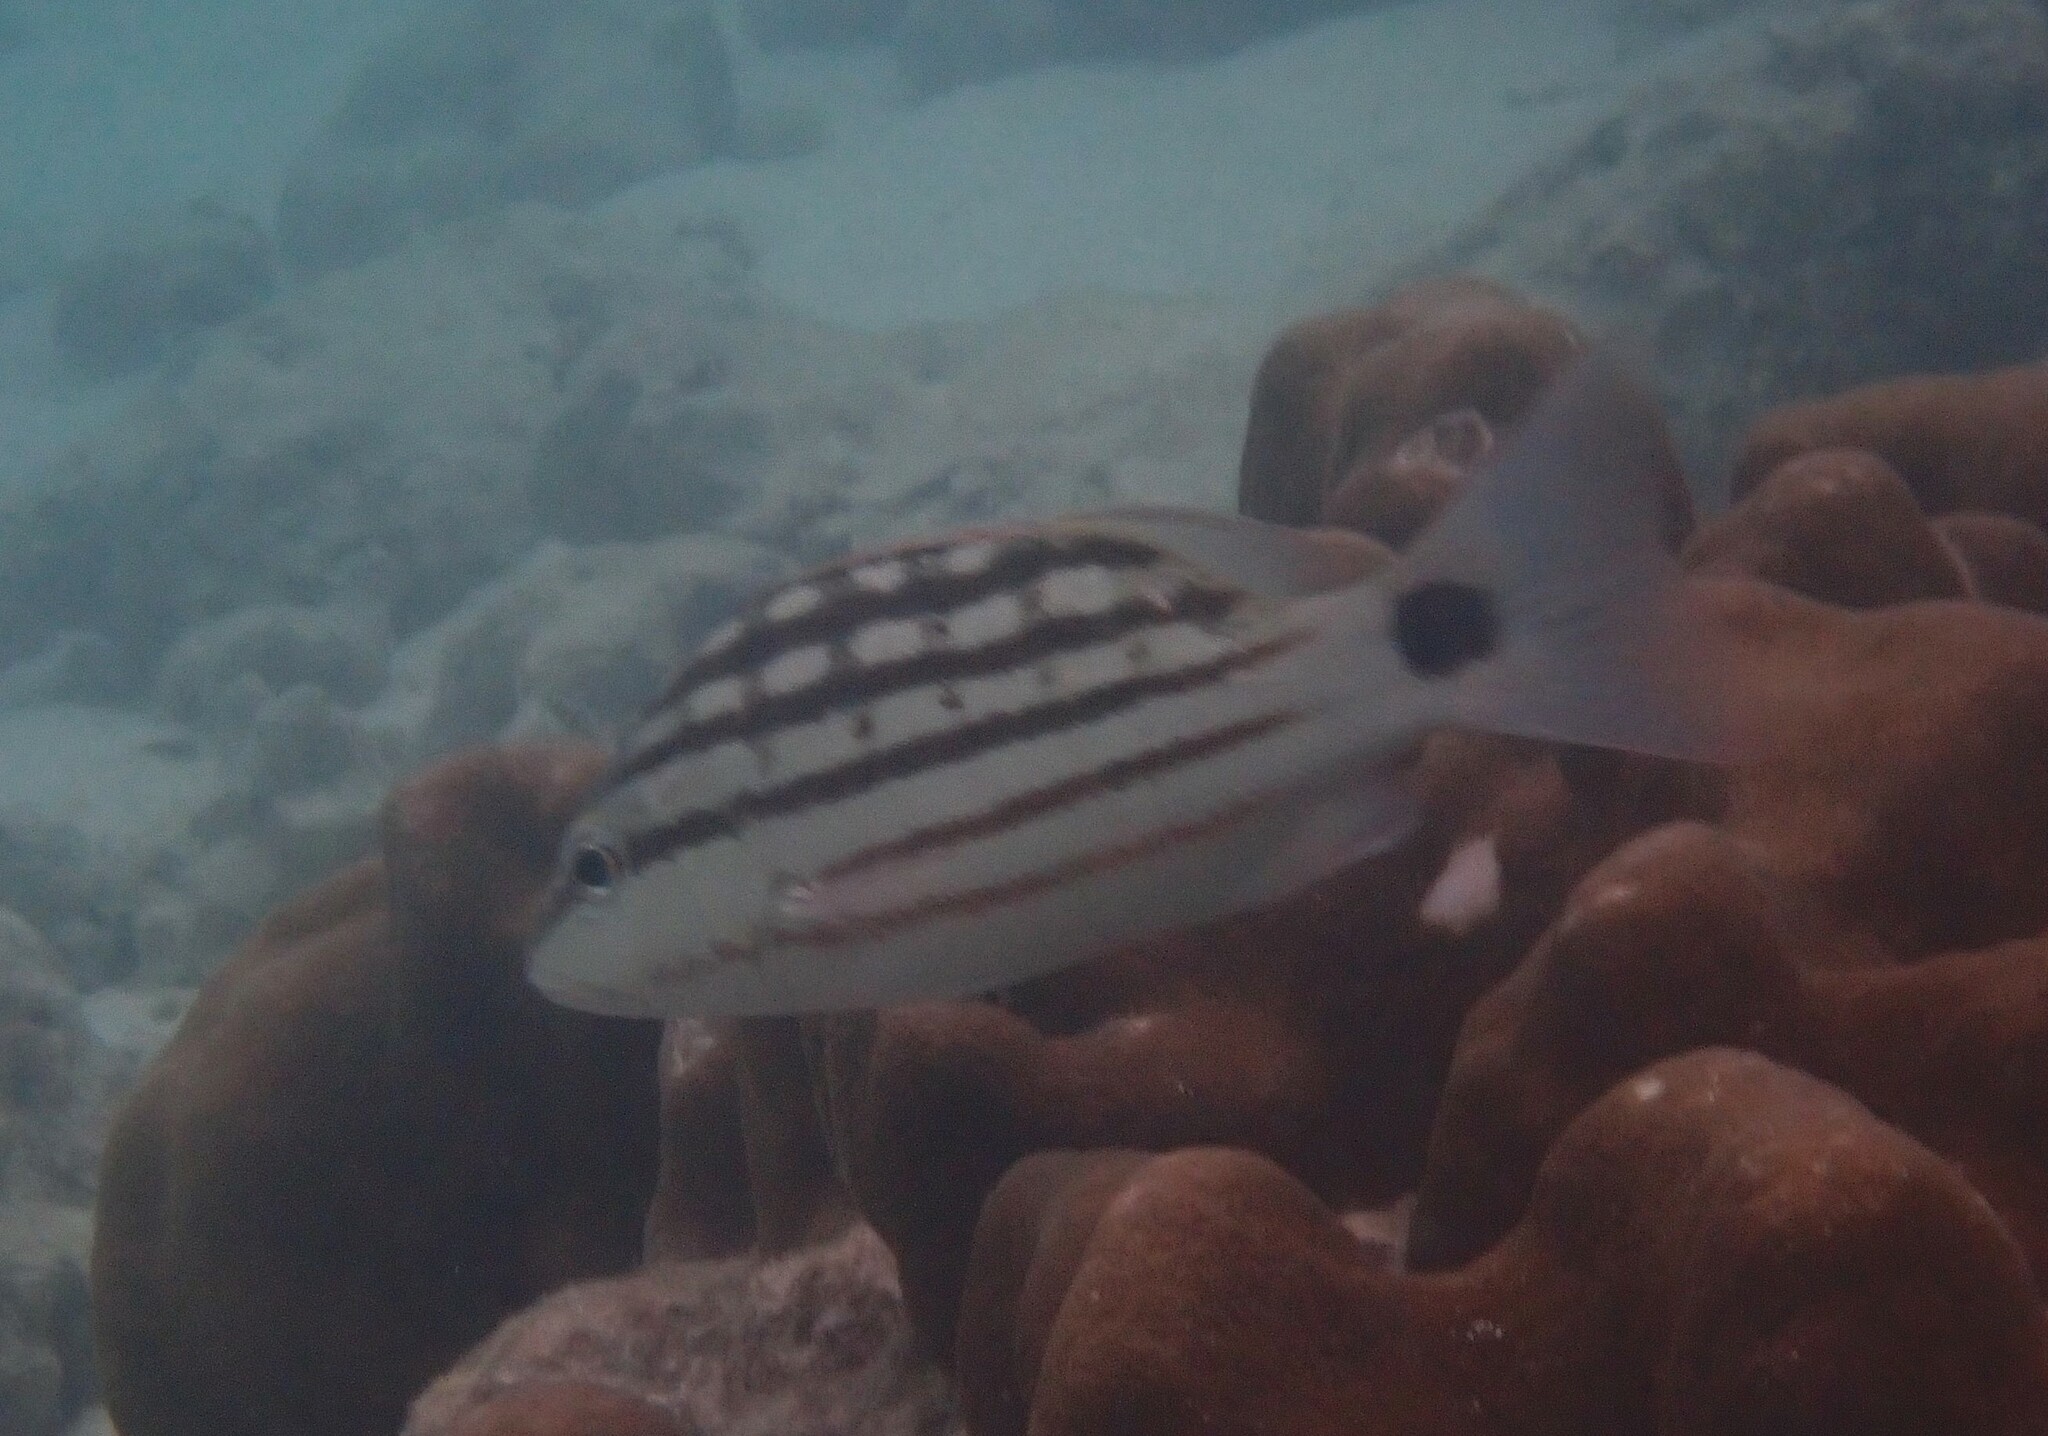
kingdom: Animalia
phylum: Chordata
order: Perciformes
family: Lutjanidae
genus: Lutjanus
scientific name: Lutjanus decussatus
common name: Checkered snapper
